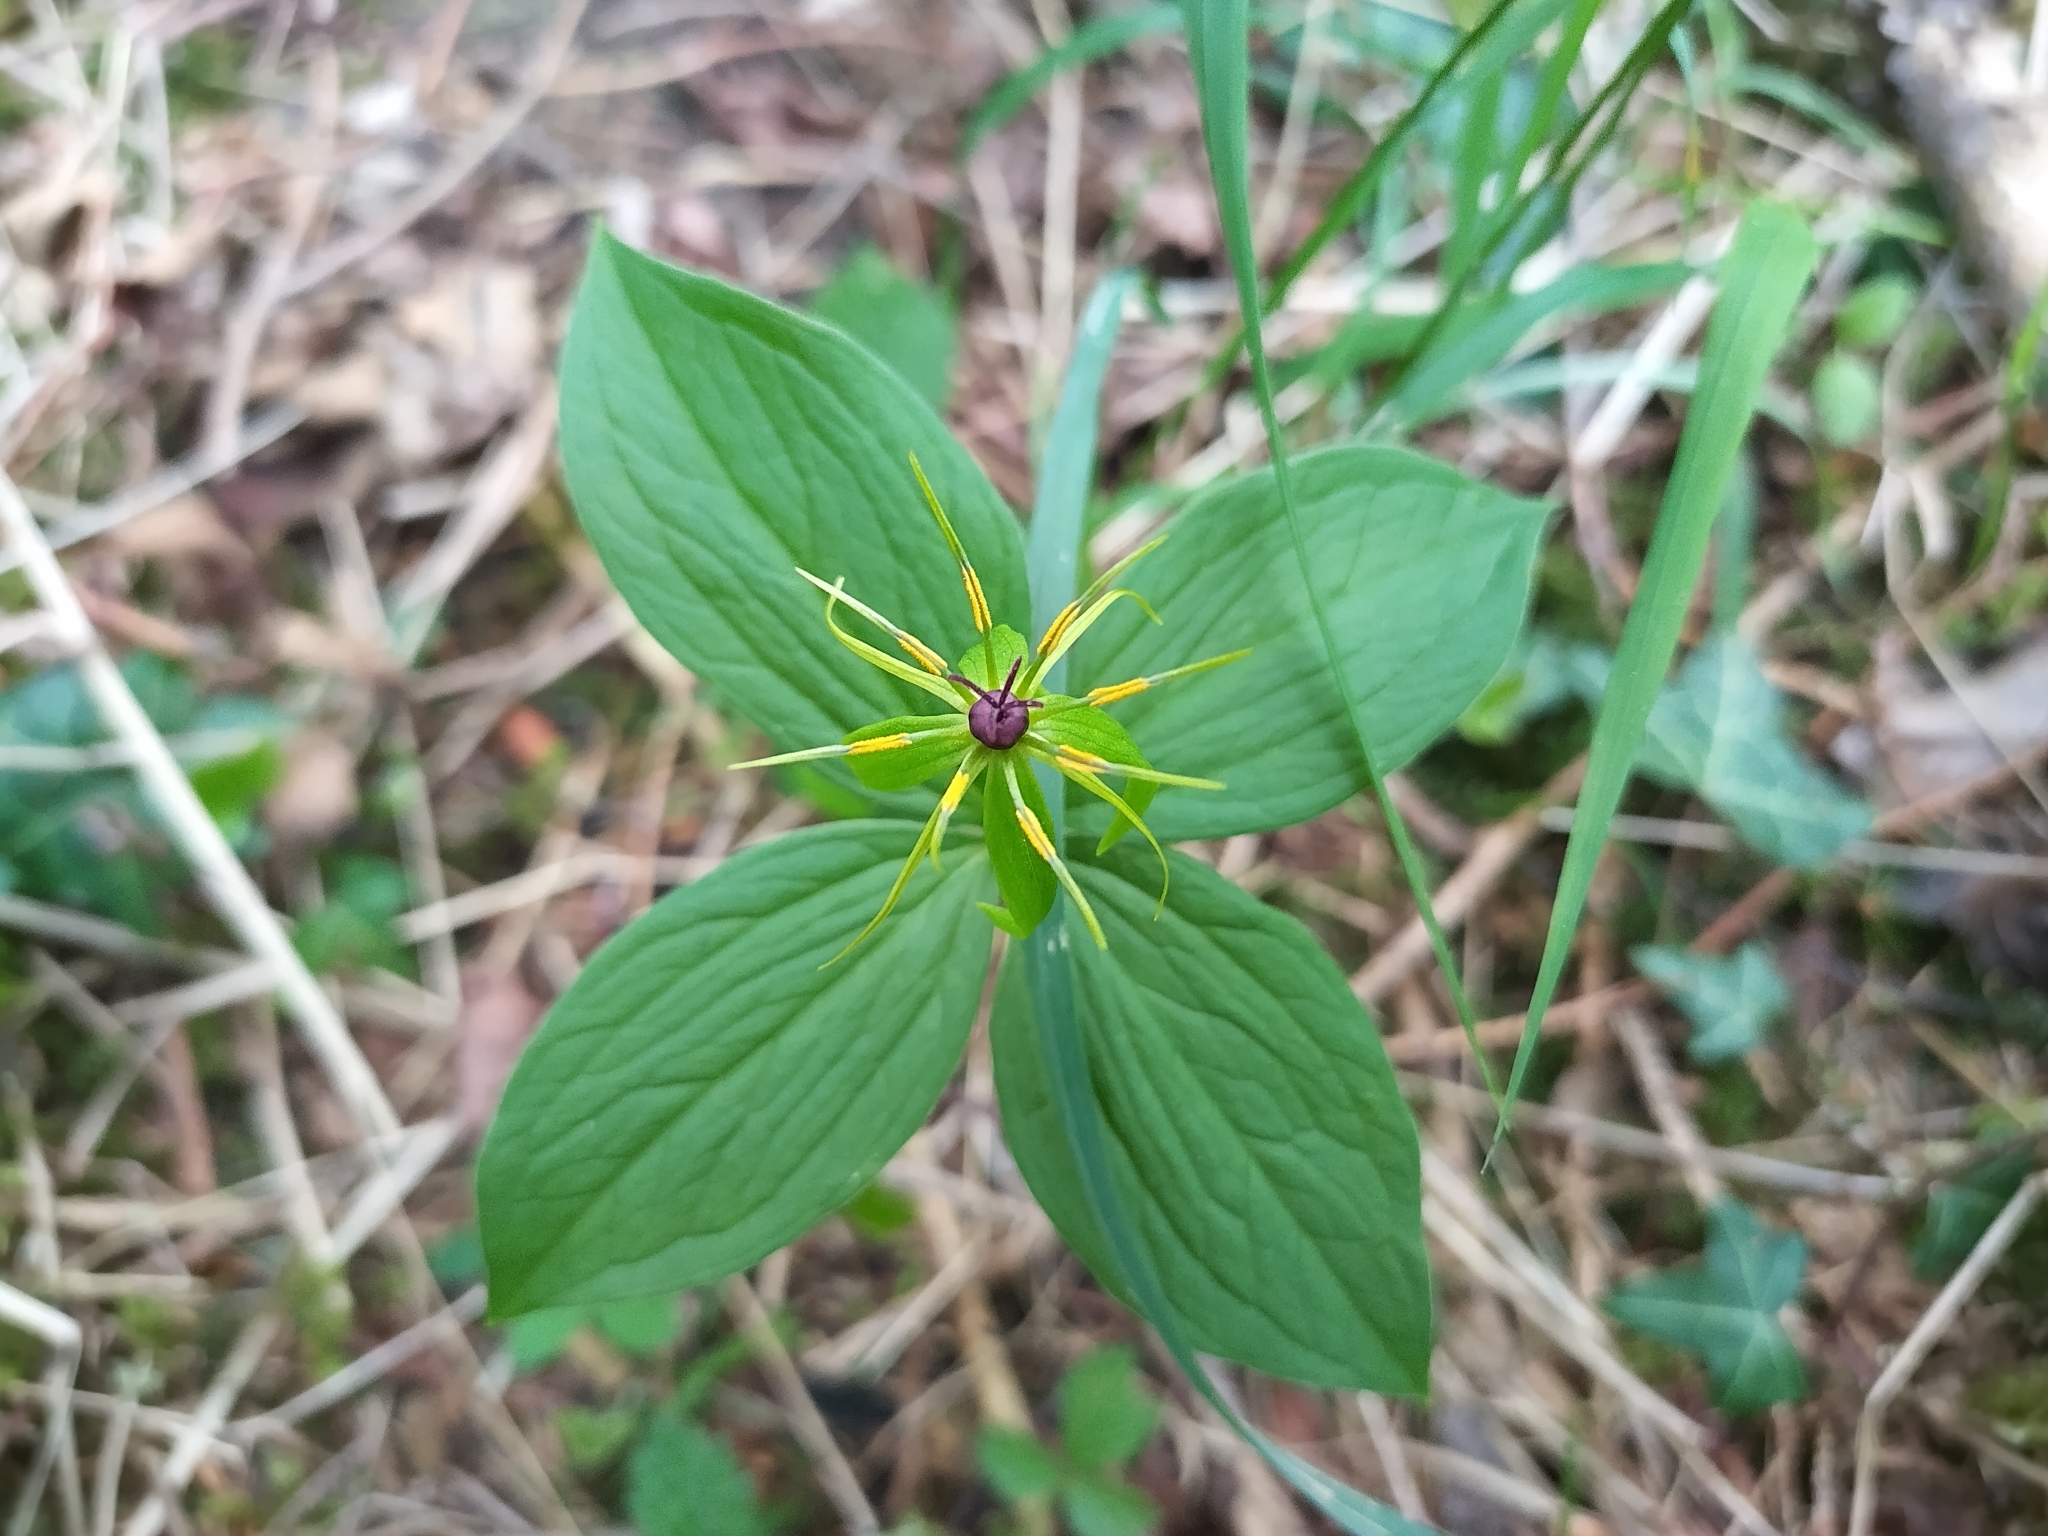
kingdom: Plantae
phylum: Tracheophyta
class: Liliopsida
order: Liliales
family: Melanthiaceae
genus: Paris
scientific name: Paris quadrifolia
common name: Herb-paris
